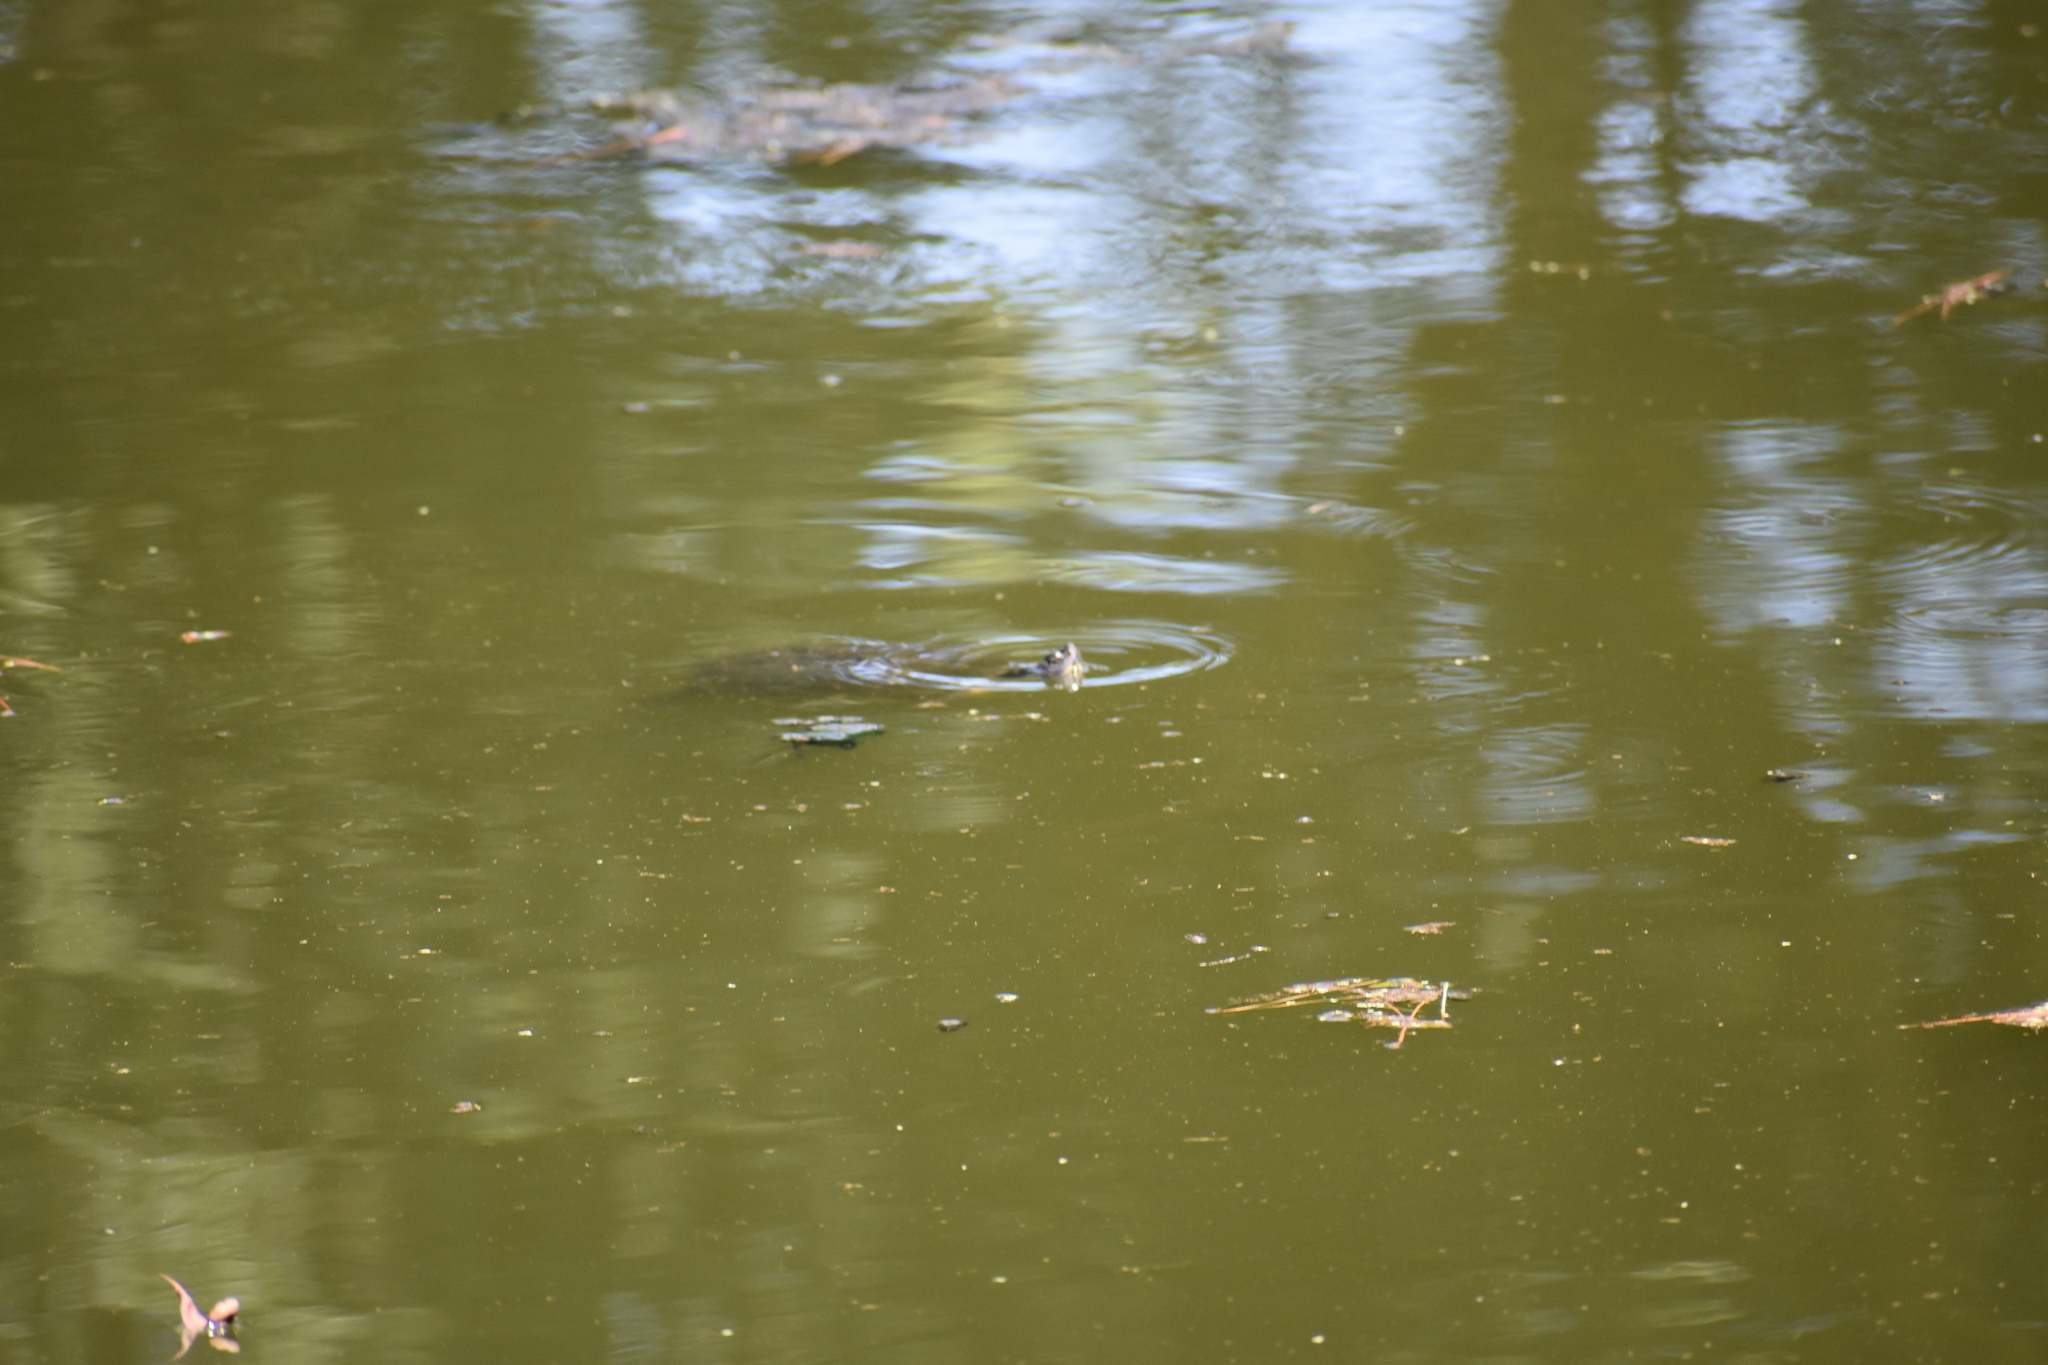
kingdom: Animalia
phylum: Chordata
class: Testudines
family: Emydidae
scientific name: Emydidae
